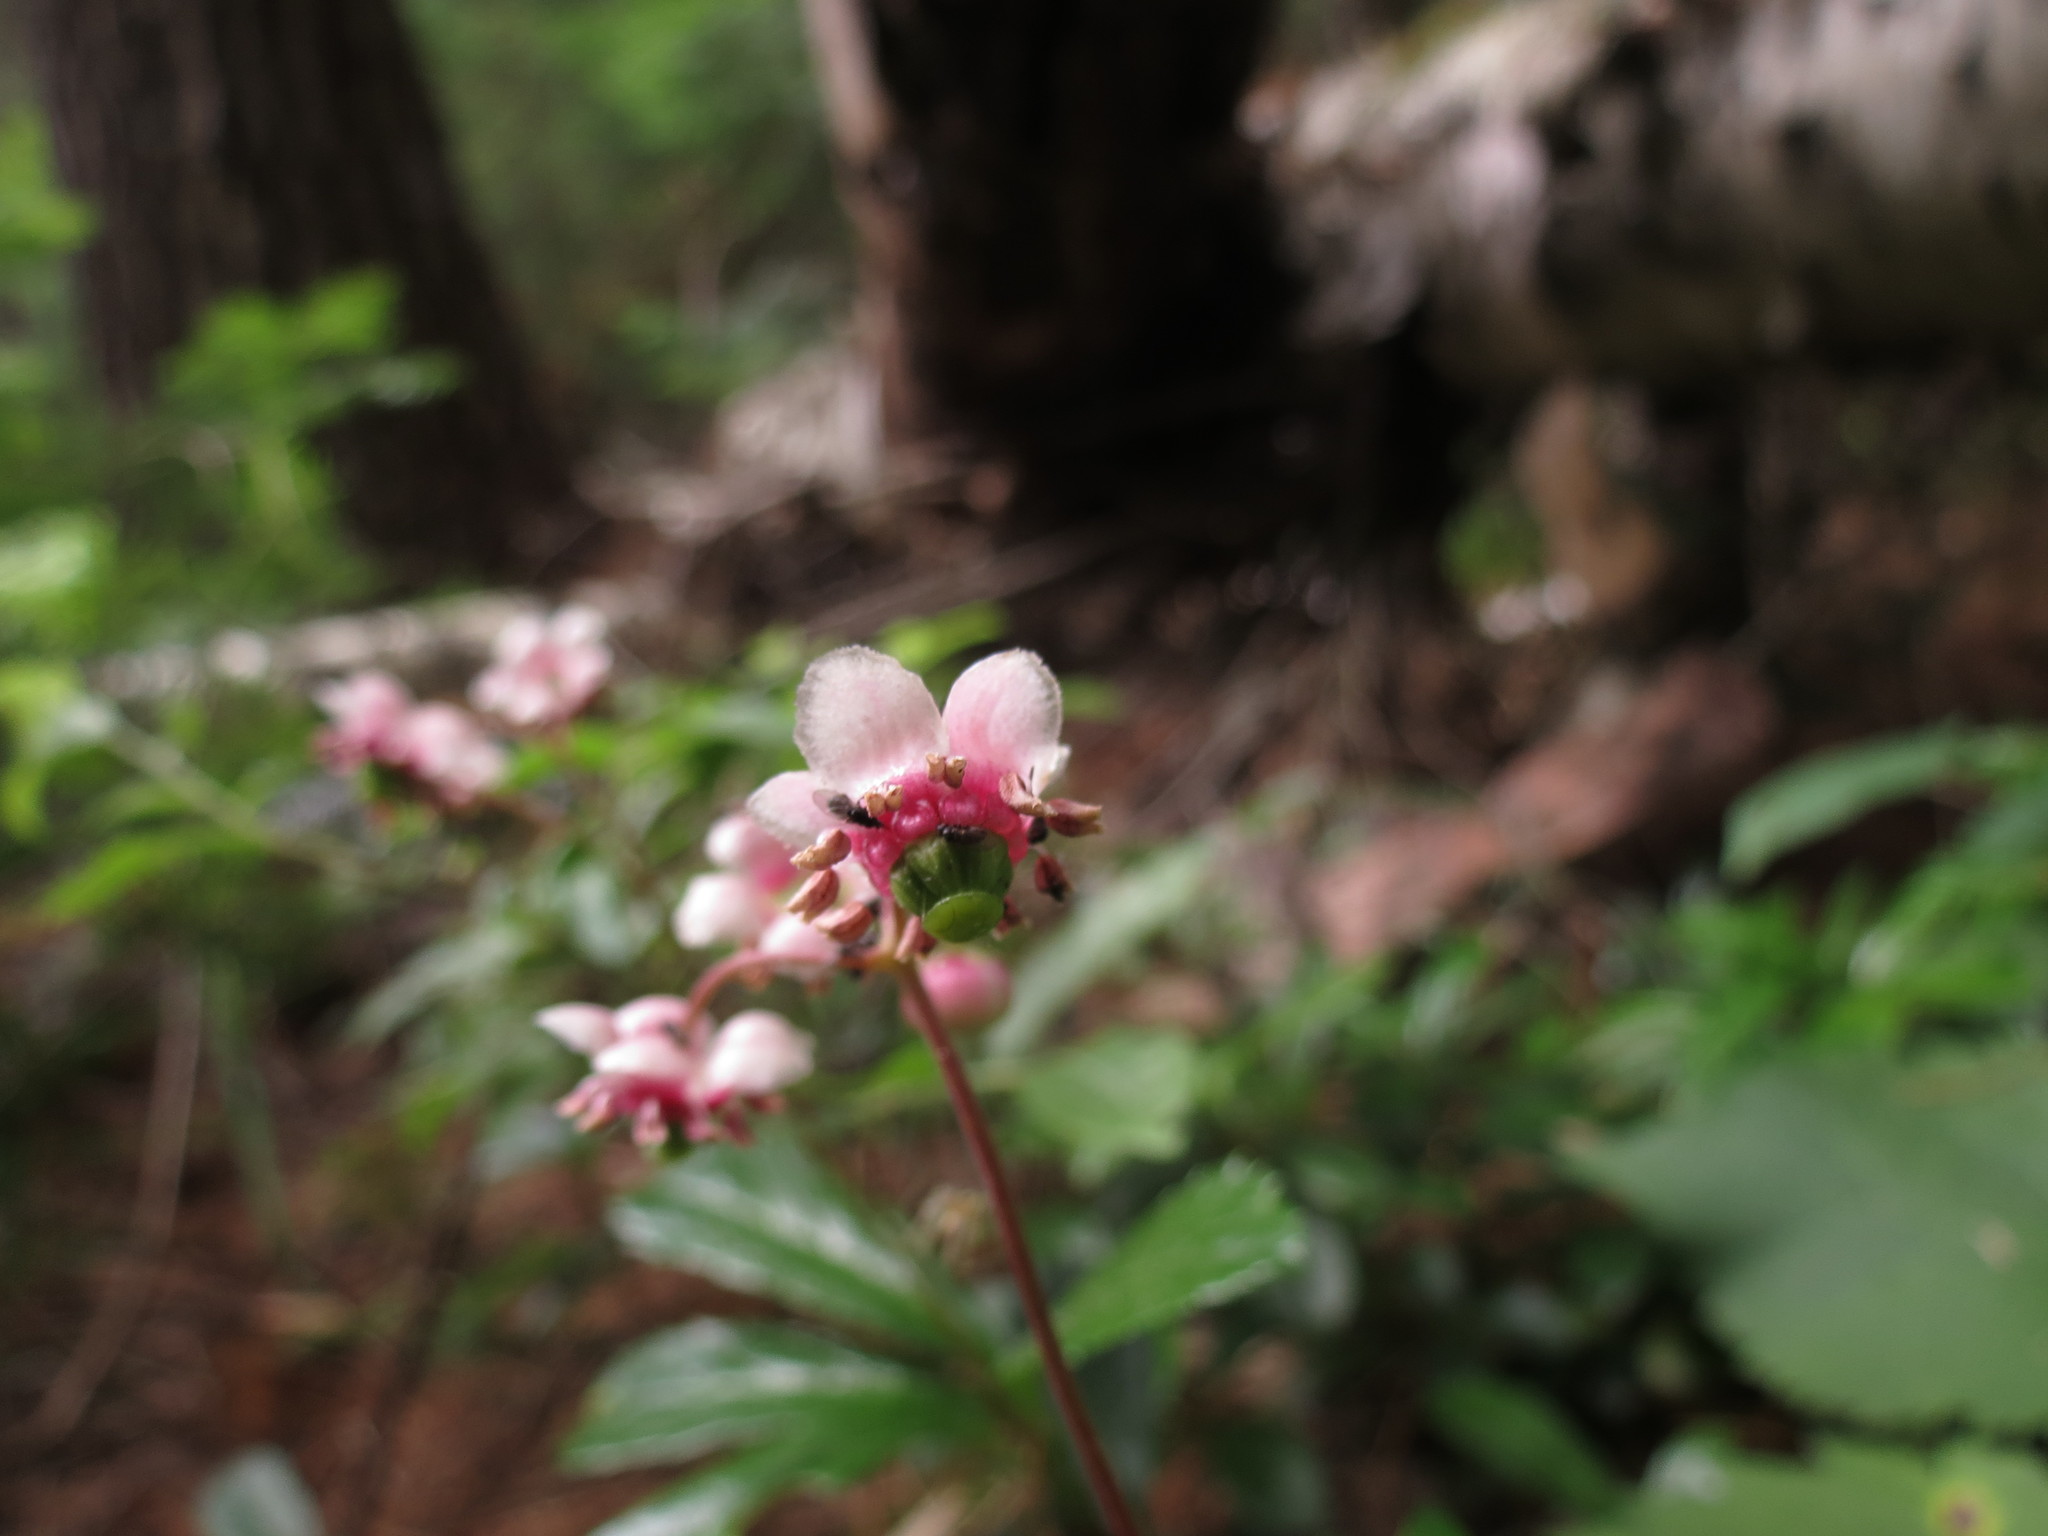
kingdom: Plantae
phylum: Tracheophyta
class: Magnoliopsida
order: Ericales
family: Ericaceae
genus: Chimaphila
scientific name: Chimaphila umbellata
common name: Pipsissewa
